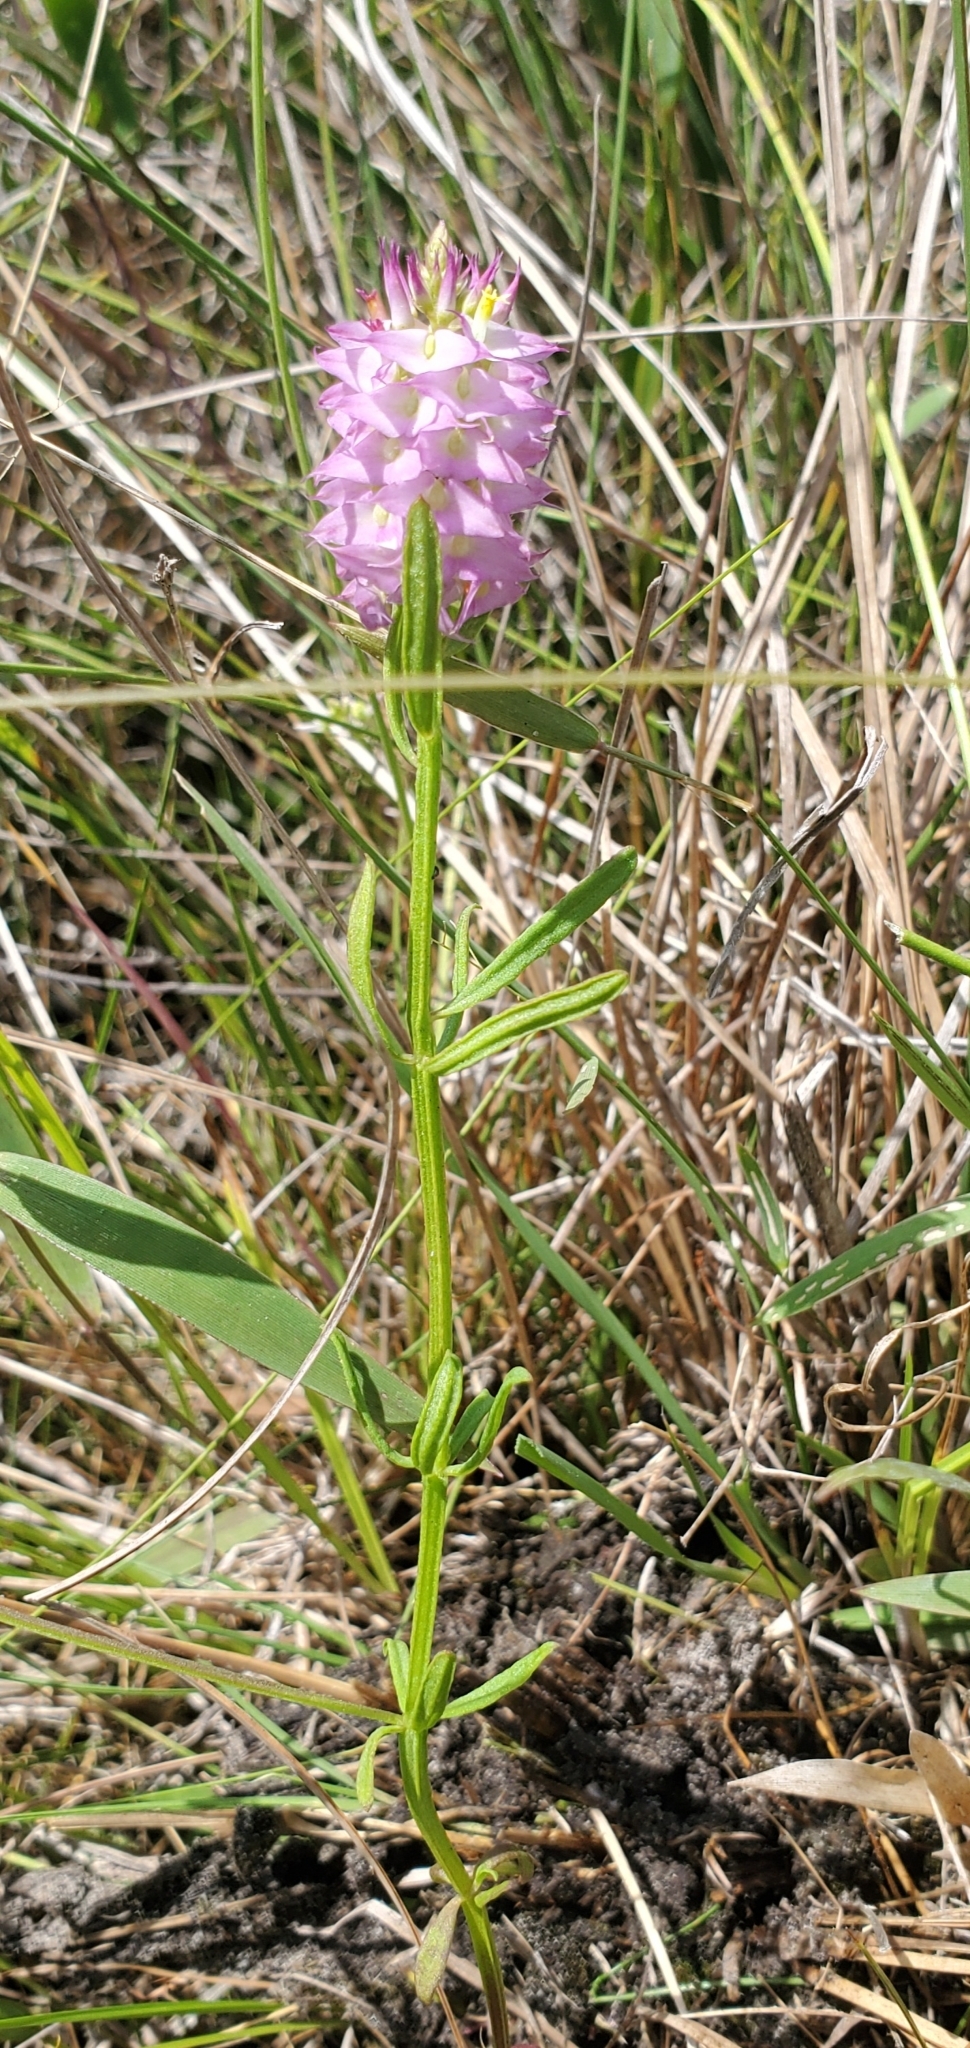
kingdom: Plantae
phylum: Tracheophyta
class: Magnoliopsida
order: Fabales
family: Polygalaceae
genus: Polygala
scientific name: Polygala cruciata
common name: Drumheads
